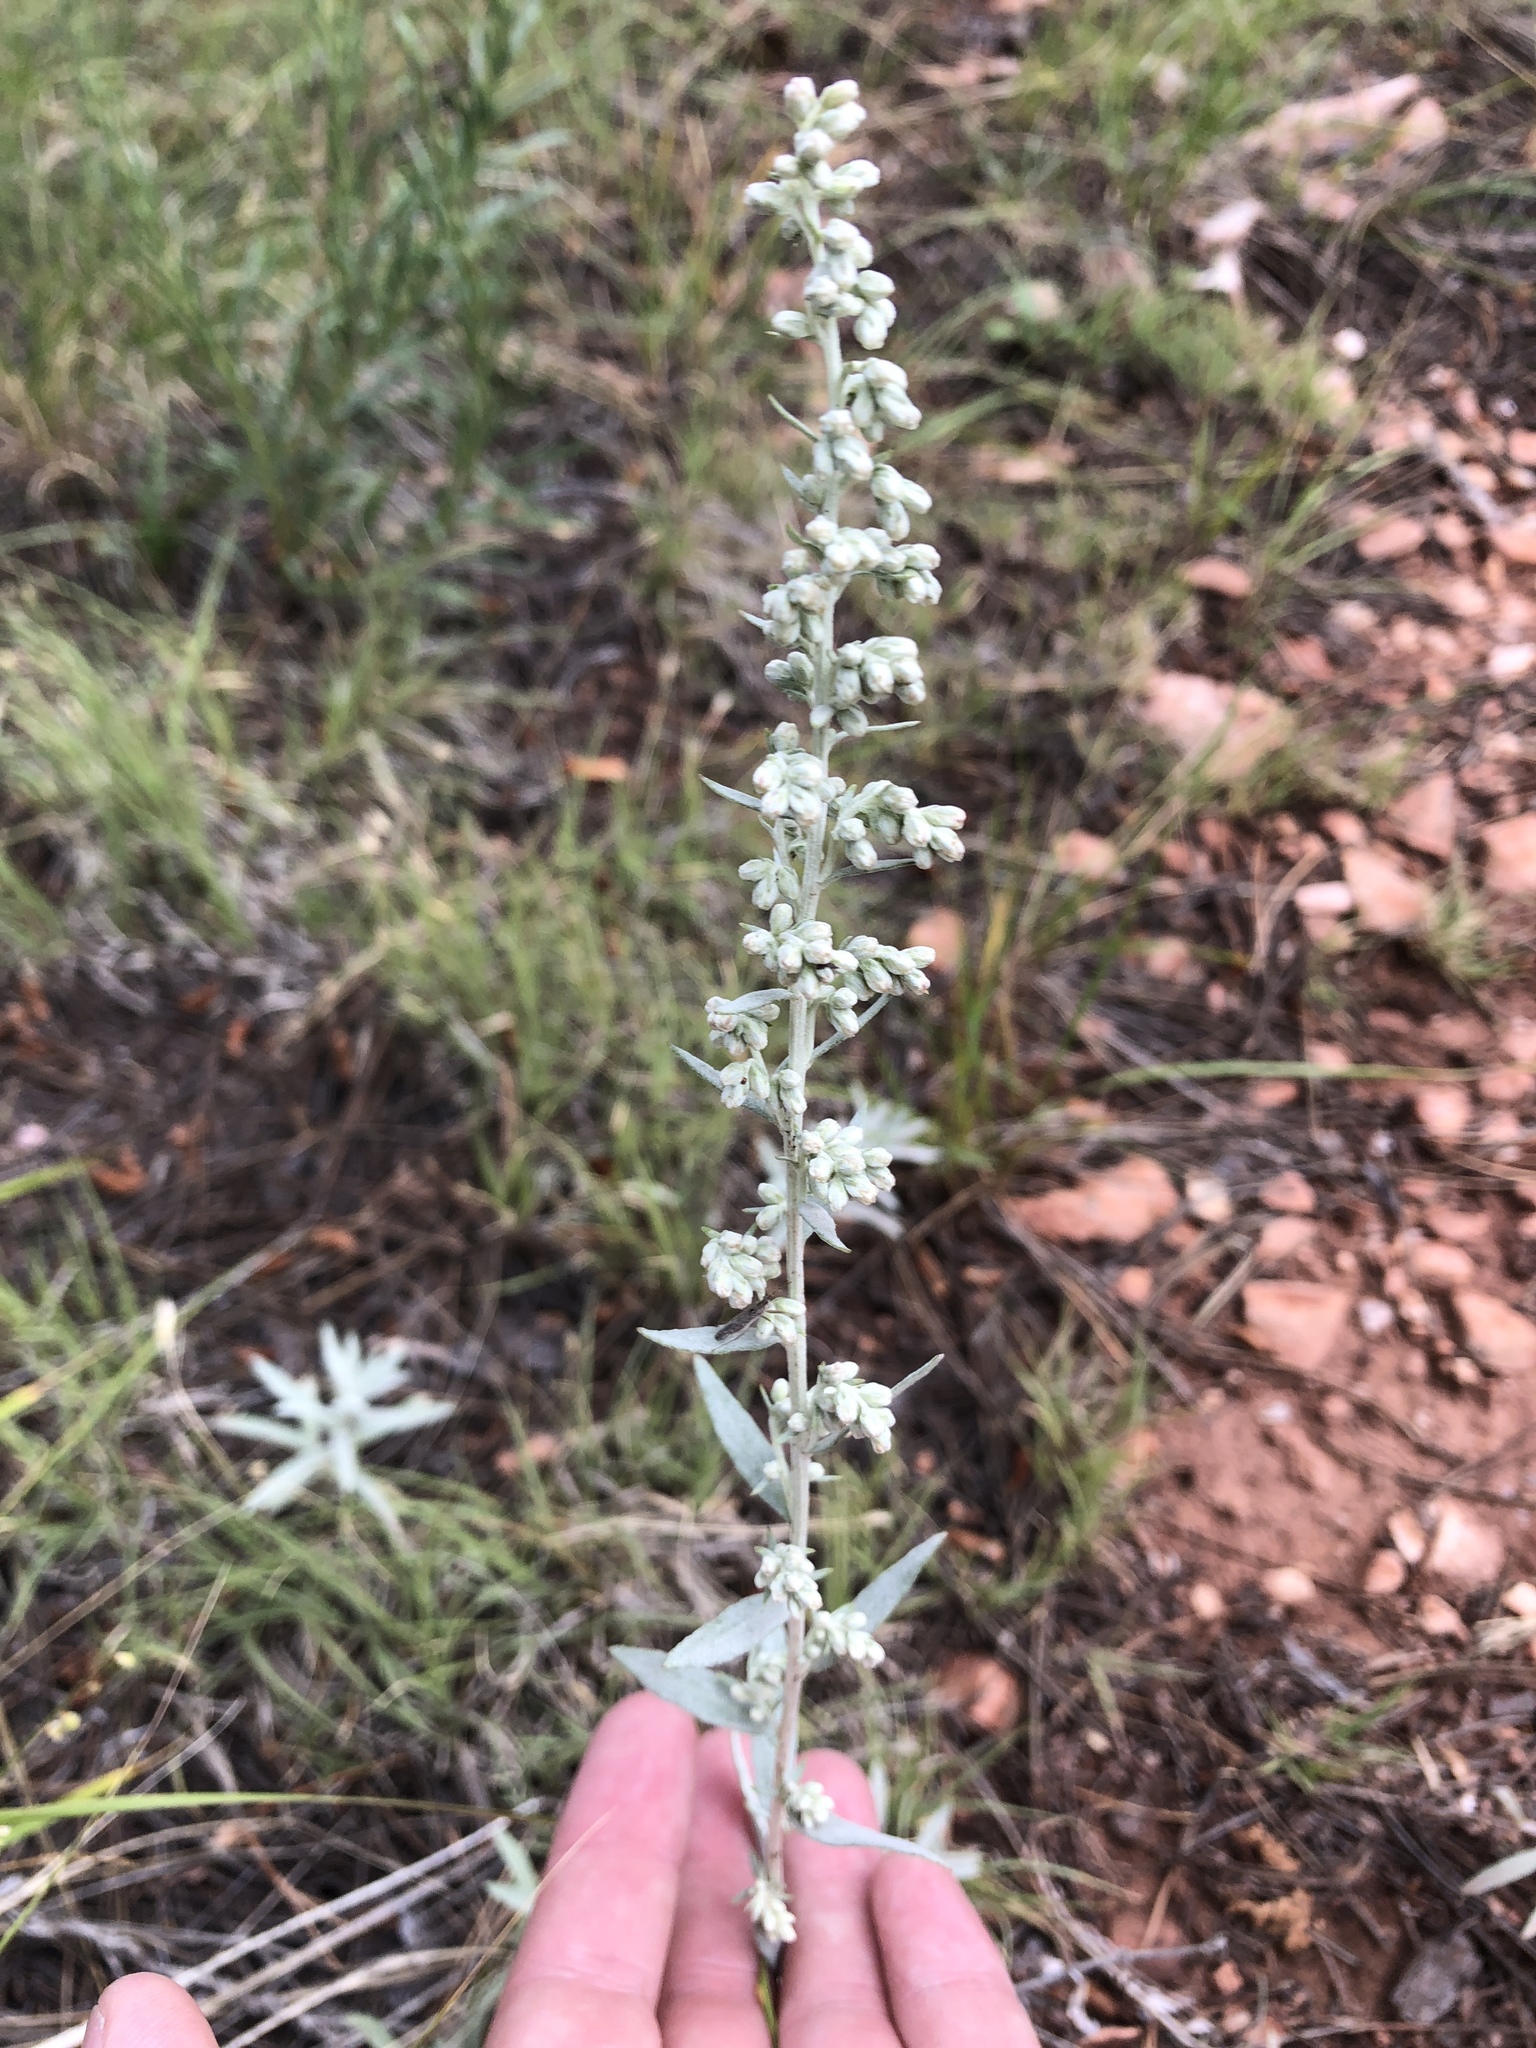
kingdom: Plantae
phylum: Tracheophyta
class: Magnoliopsida
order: Asterales
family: Asteraceae
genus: Artemisia
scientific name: Artemisia ludoviciana
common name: Western mugwort
